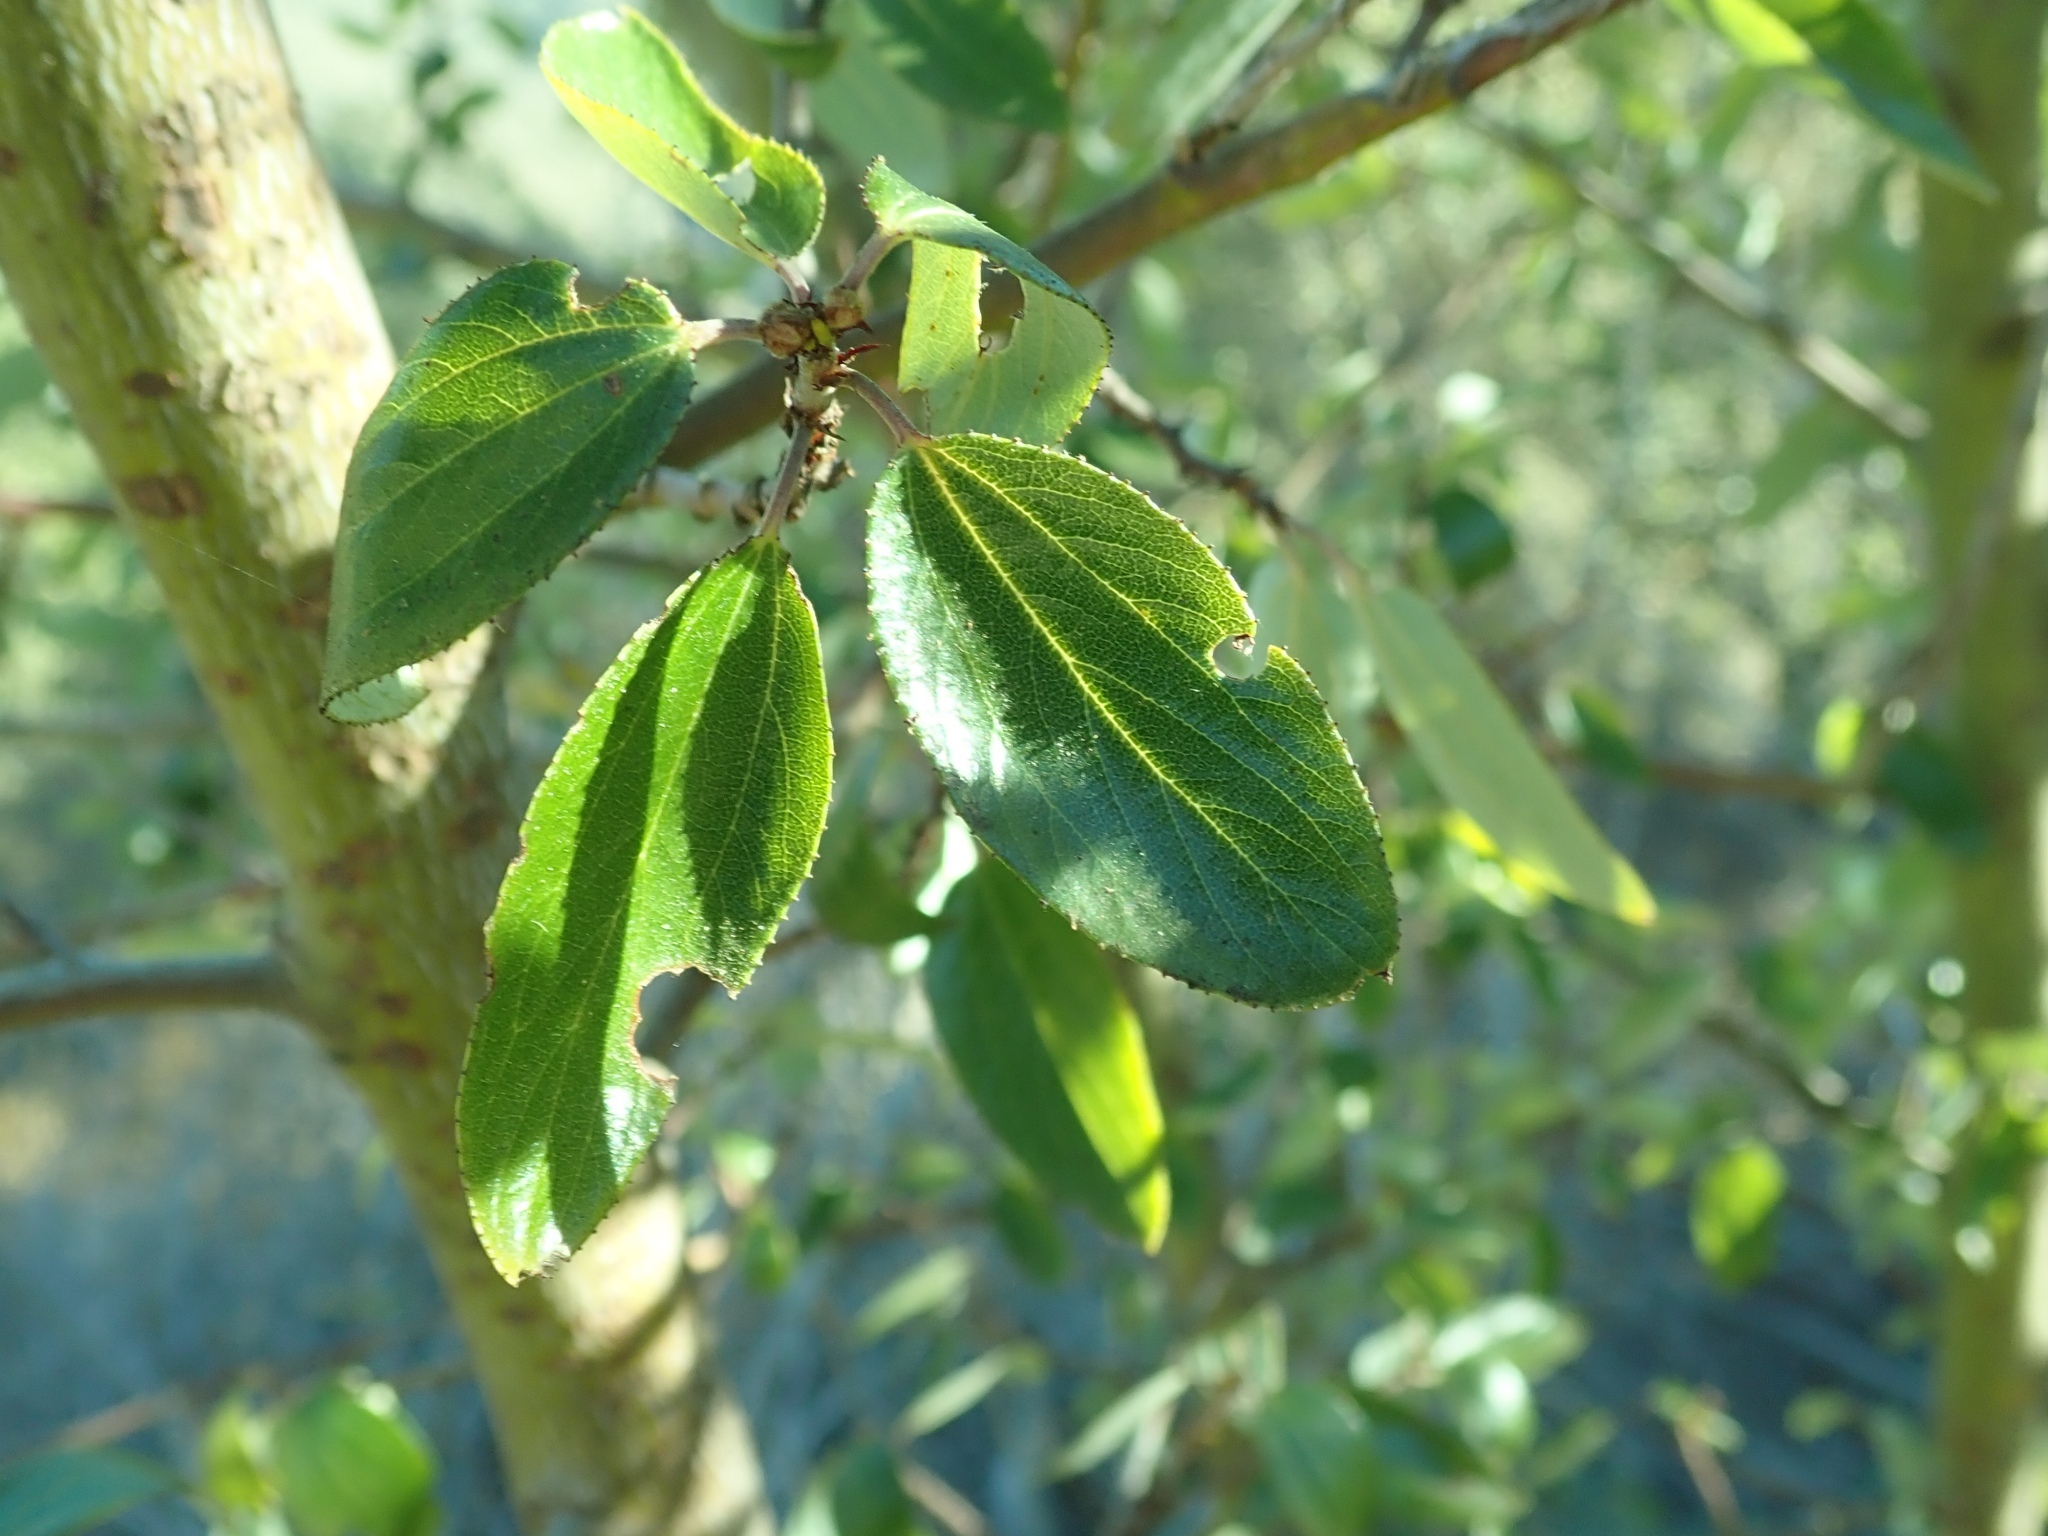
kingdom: Plantae
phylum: Tracheophyta
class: Magnoliopsida
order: Rosales
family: Rhamnaceae
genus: Ceanothus
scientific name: Ceanothus sorediatus
